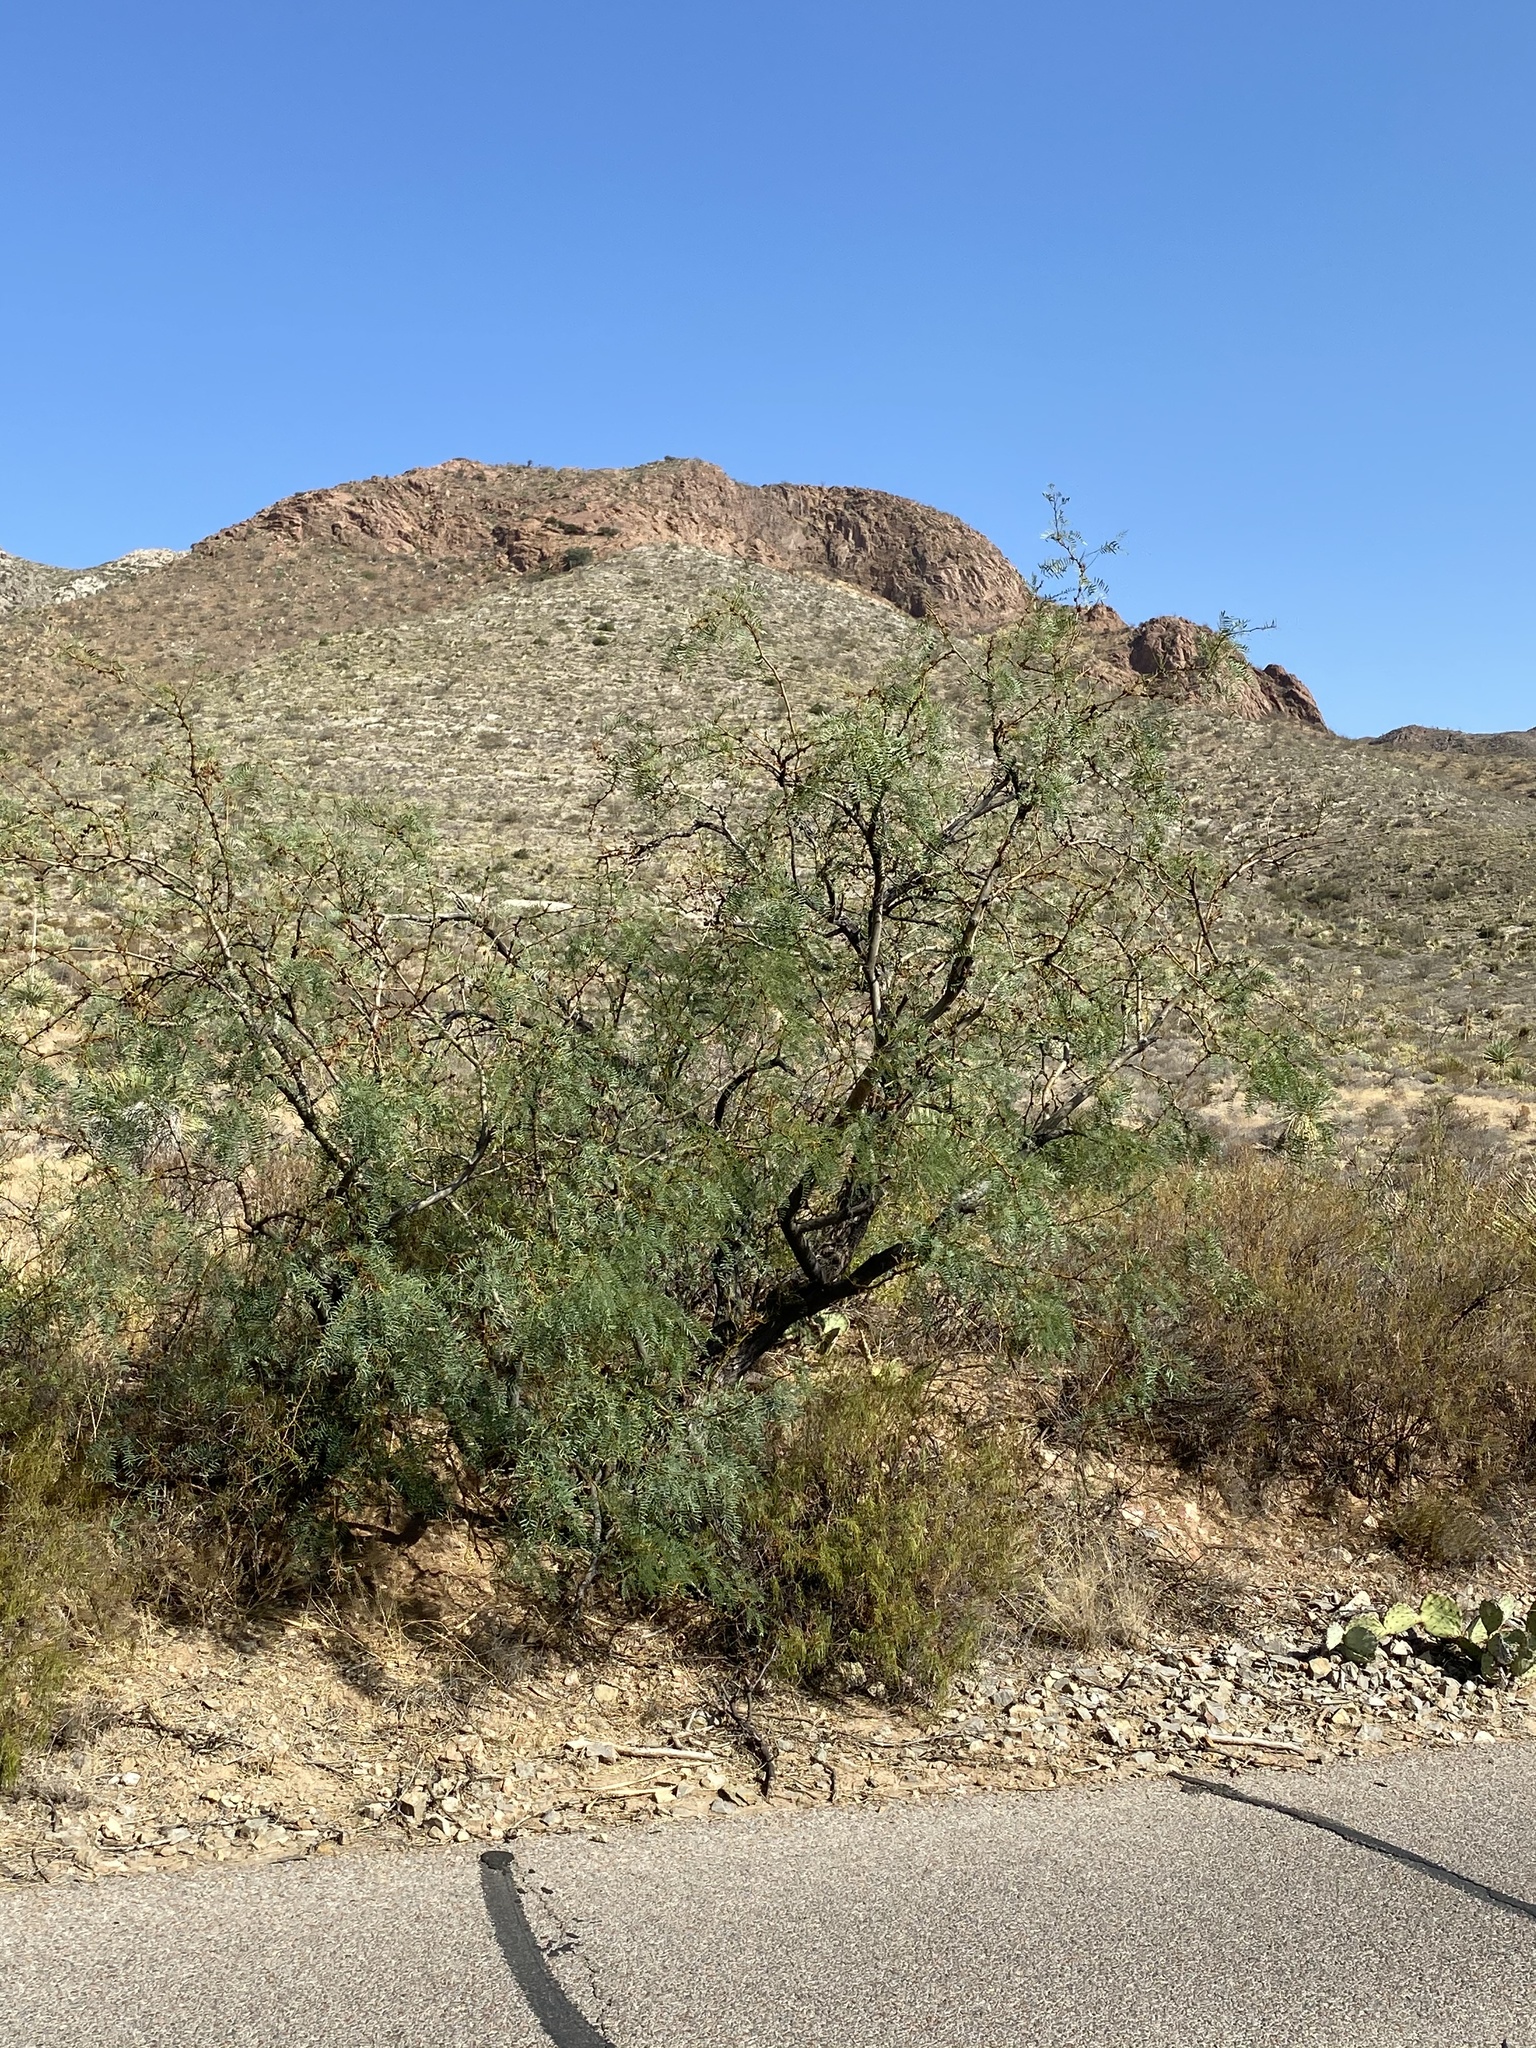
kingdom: Plantae
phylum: Tracheophyta
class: Magnoliopsida
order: Fabales
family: Fabaceae
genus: Prosopis
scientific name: Prosopis glandulosa
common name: Honey mesquite
